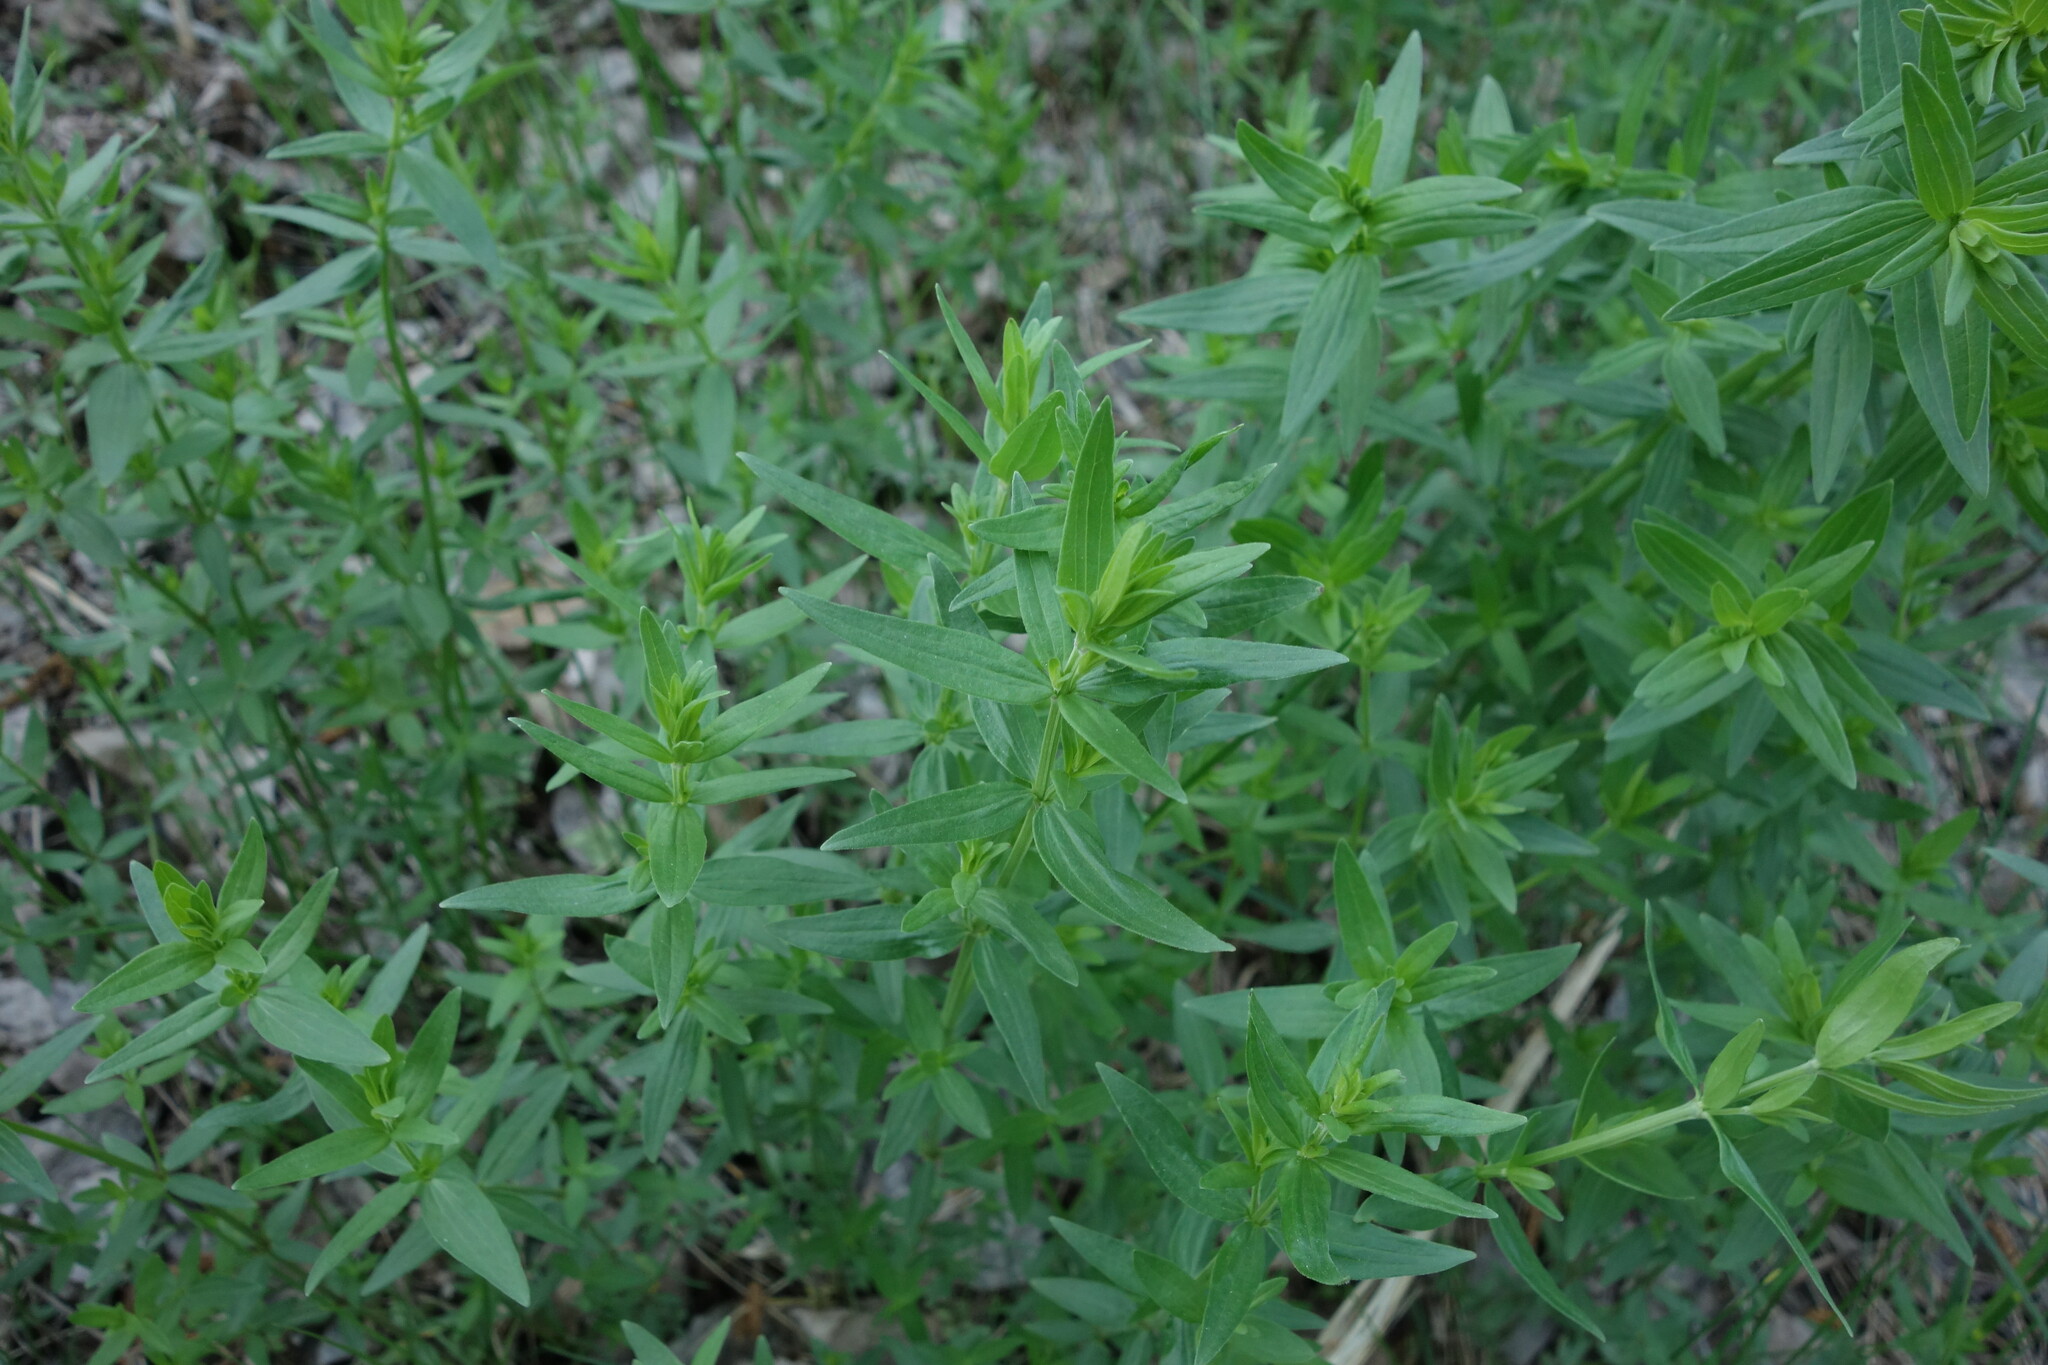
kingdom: Plantae
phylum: Tracheophyta
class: Magnoliopsida
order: Gentianales
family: Rubiaceae
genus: Galium
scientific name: Galium boreale
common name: Northern bedstraw
